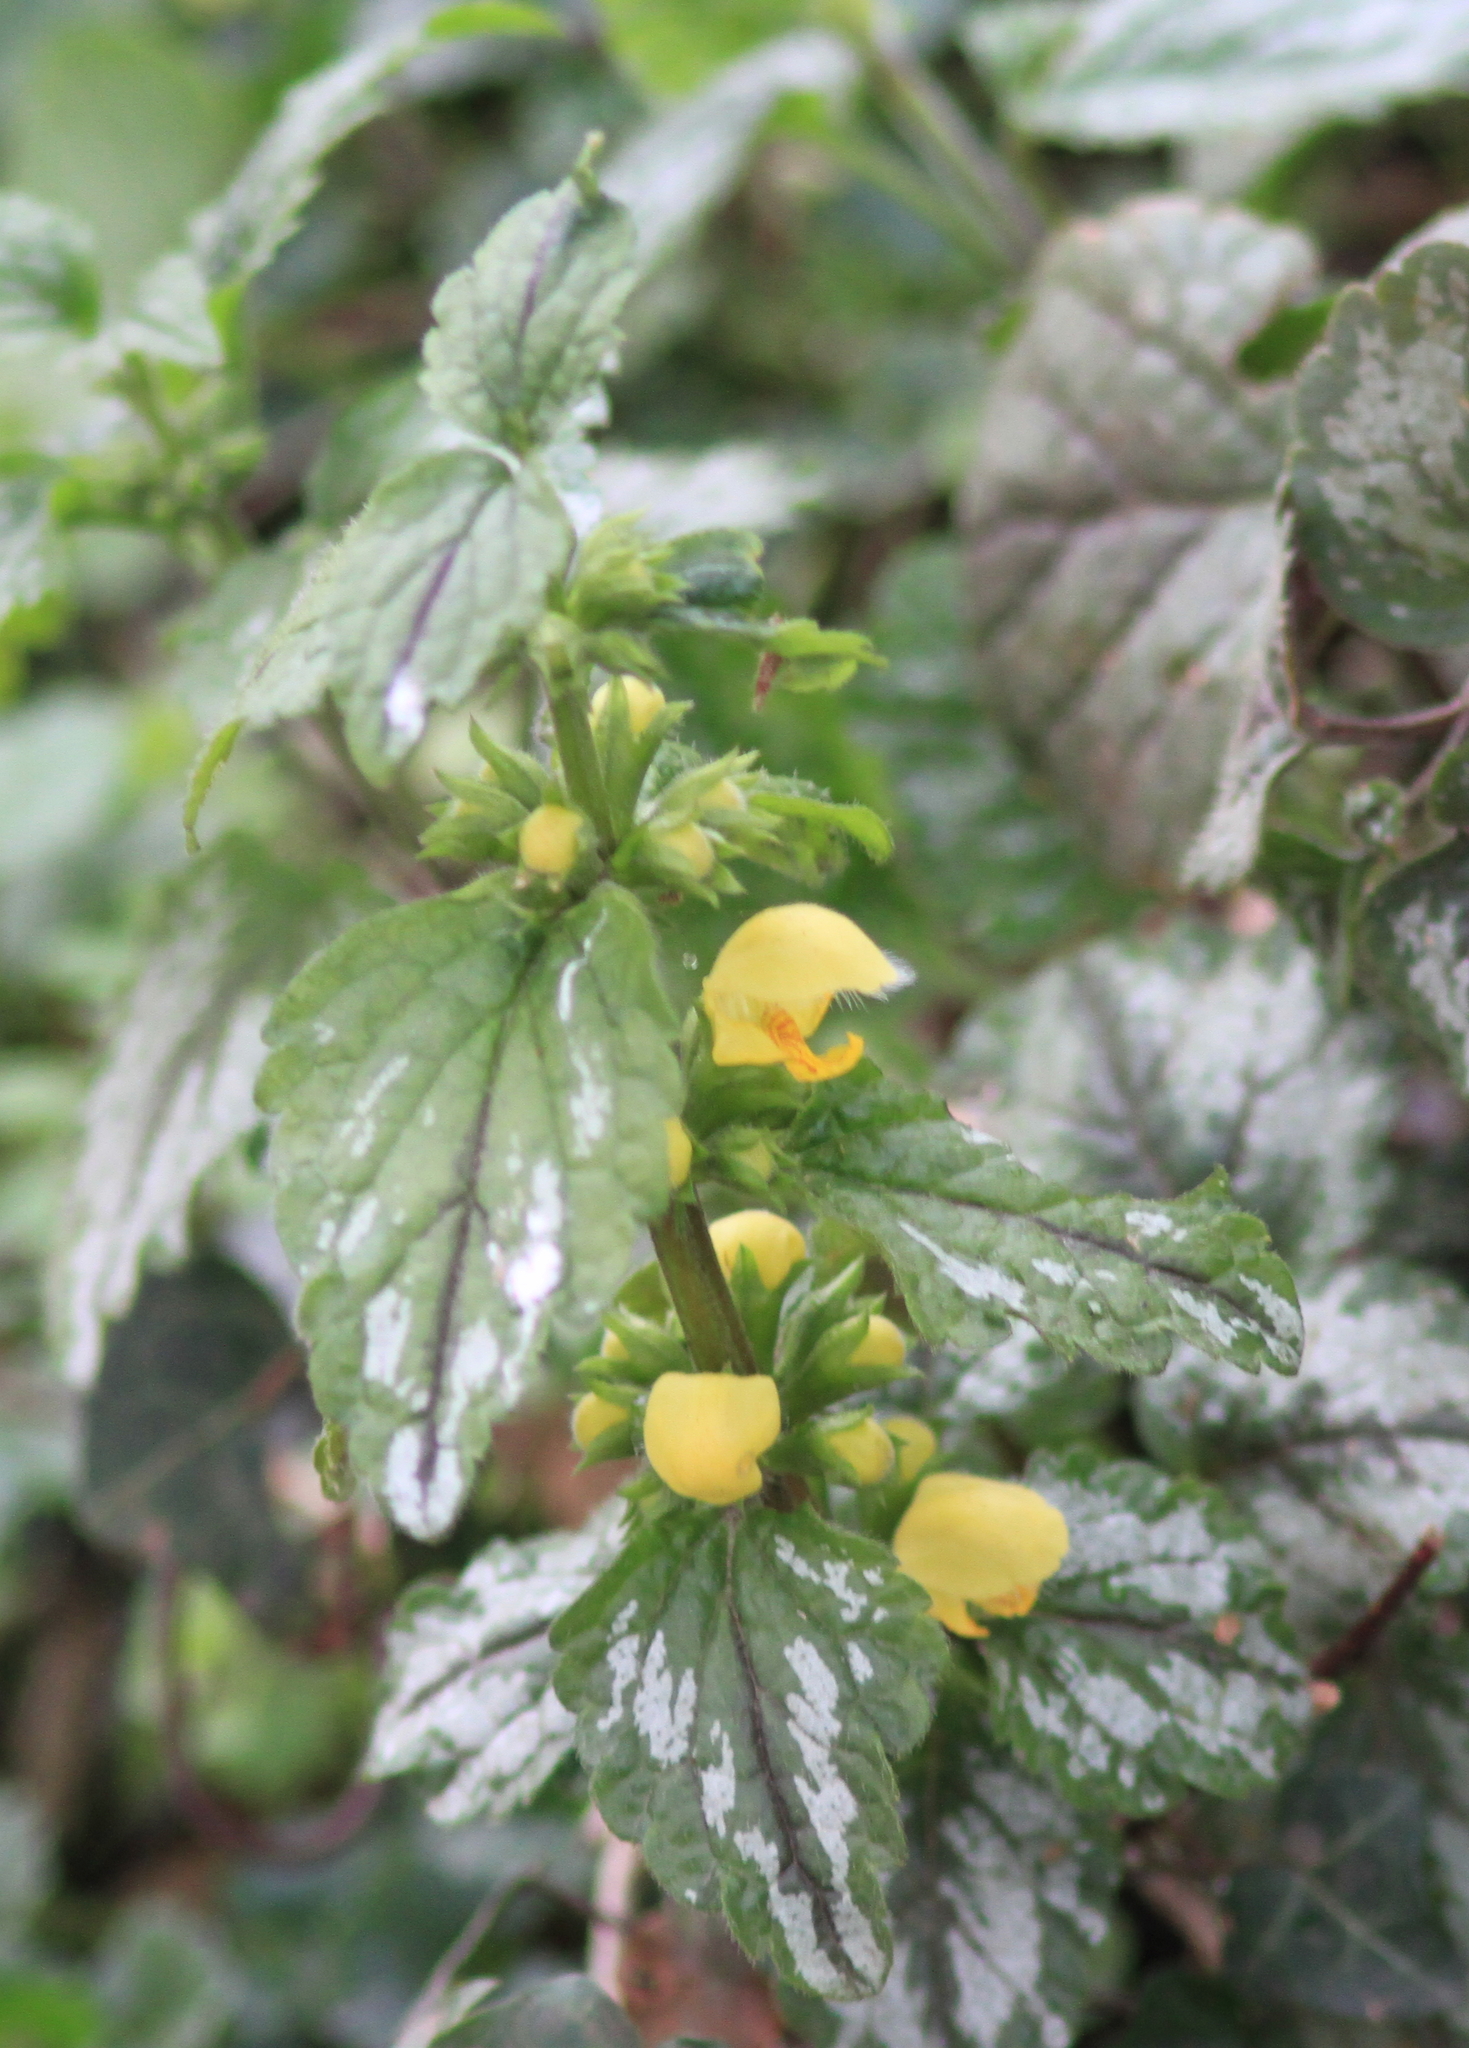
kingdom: Plantae
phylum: Tracheophyta
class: Magnoliopsida
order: Lamiales
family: Lamiaceae
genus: Lamium
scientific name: Lamium galeobdolon
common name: Yellow archangel
